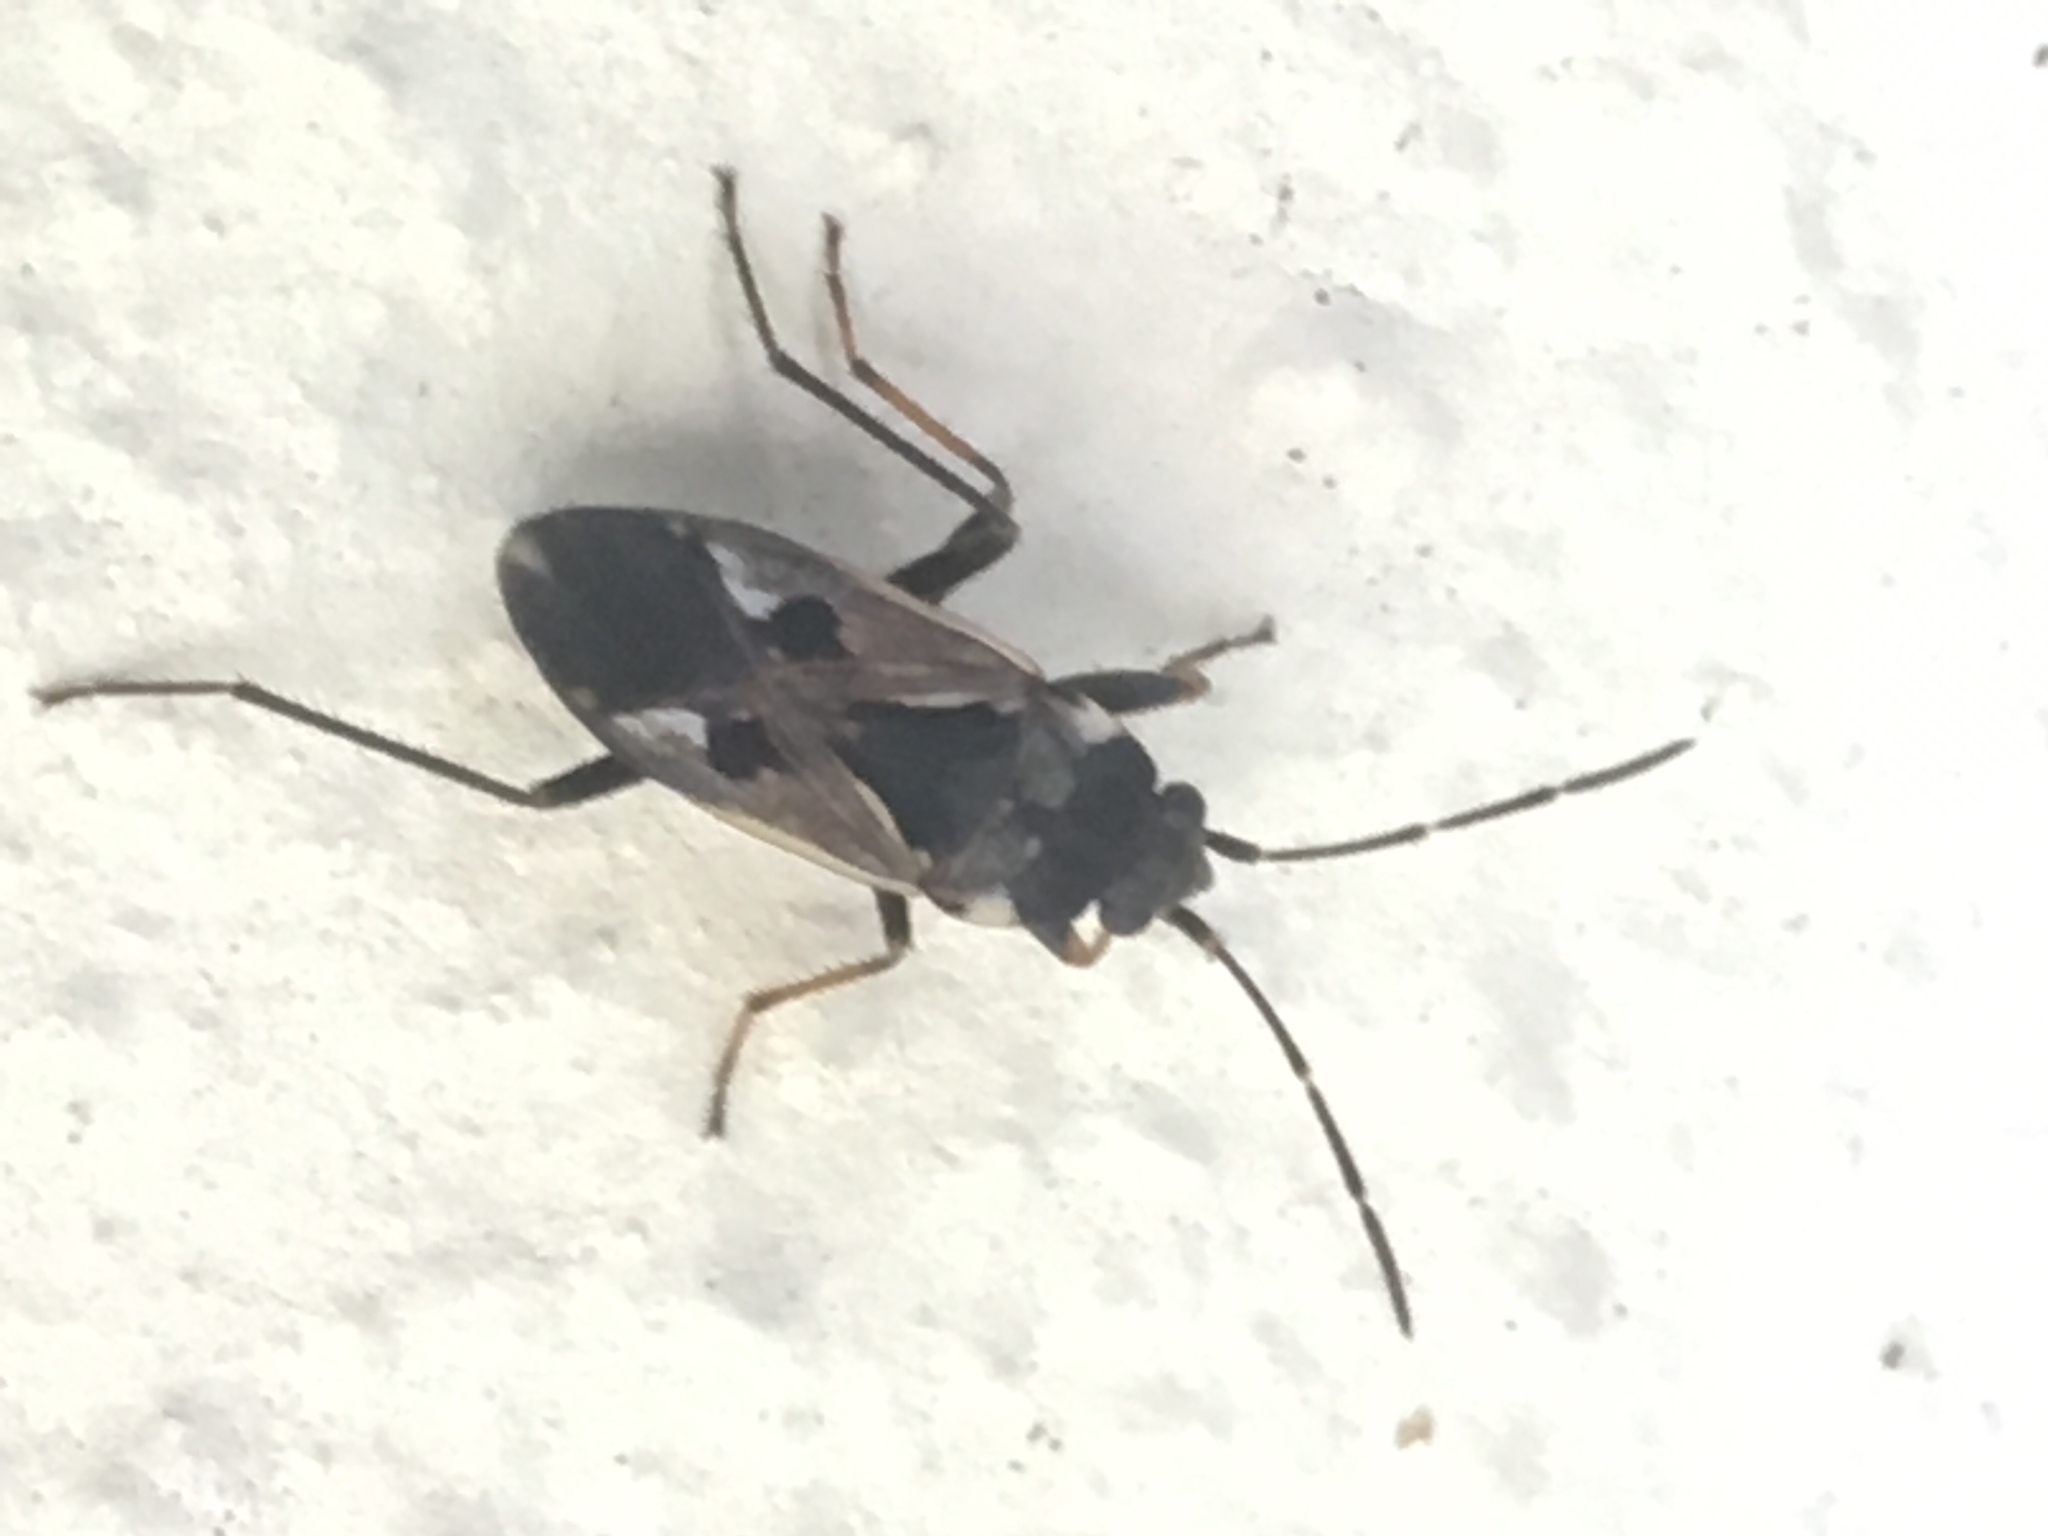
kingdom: Animalia
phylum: Arthropoda
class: Insecta
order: Hemiptera
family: Rhyparochromidae
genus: Rhyparochromus
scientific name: Rhyparochromus vulgaris
